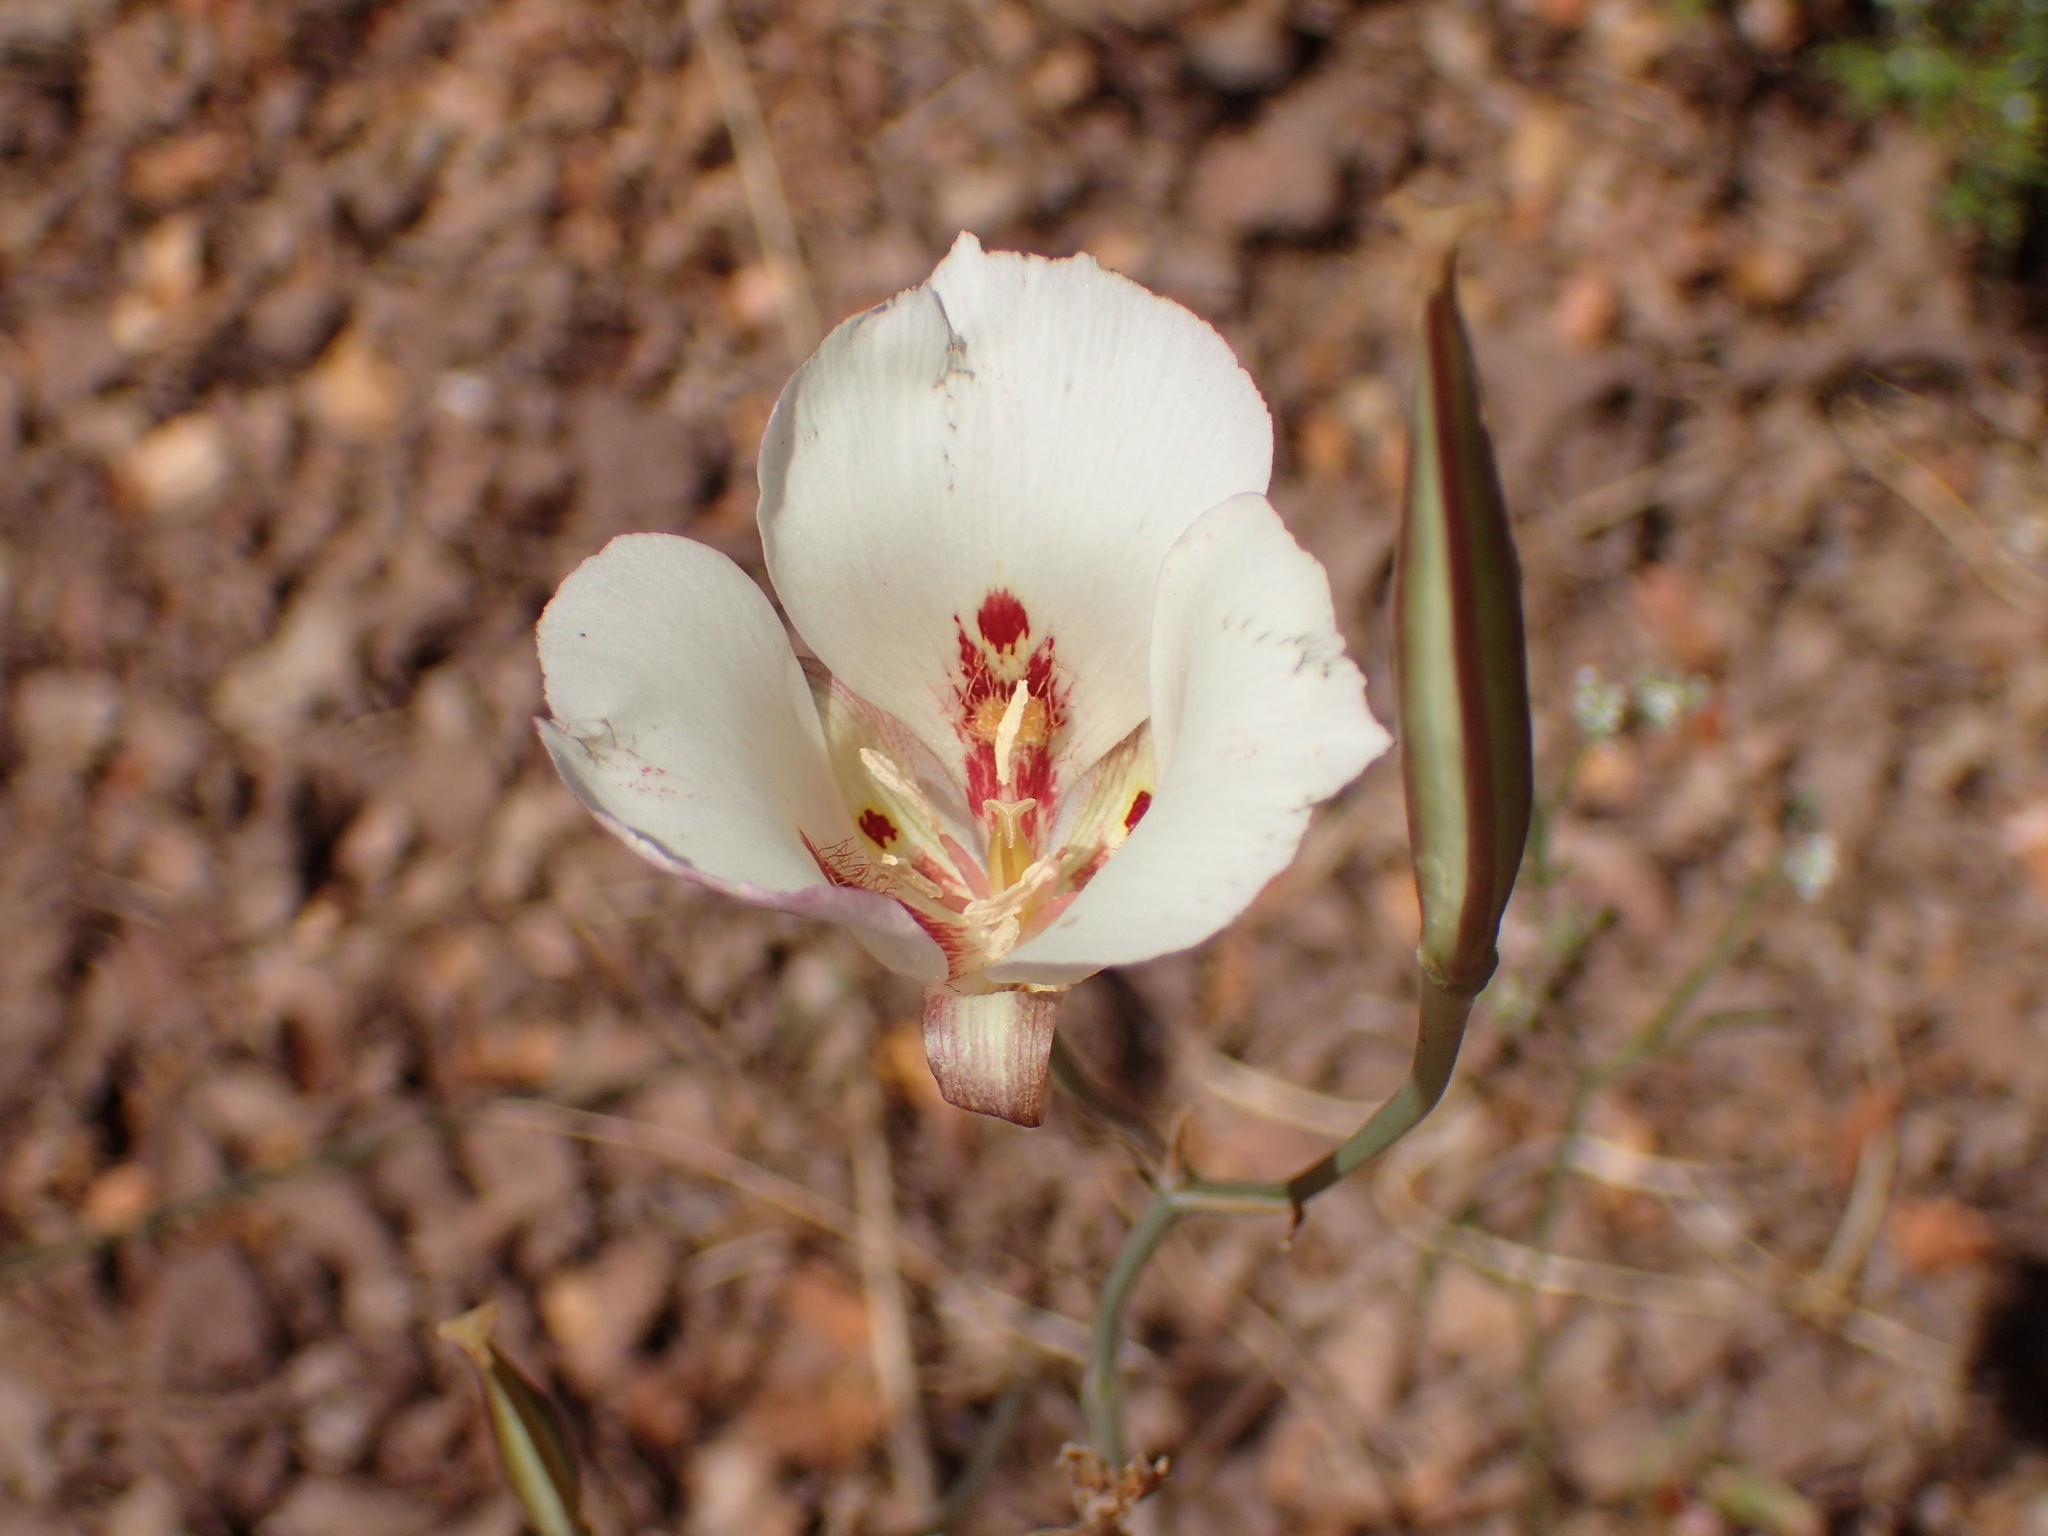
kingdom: Plantae
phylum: Tracheophyta
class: Liliopsida
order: Liliales
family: Liliaceae
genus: Calochortus
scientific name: Calochortus venustus
